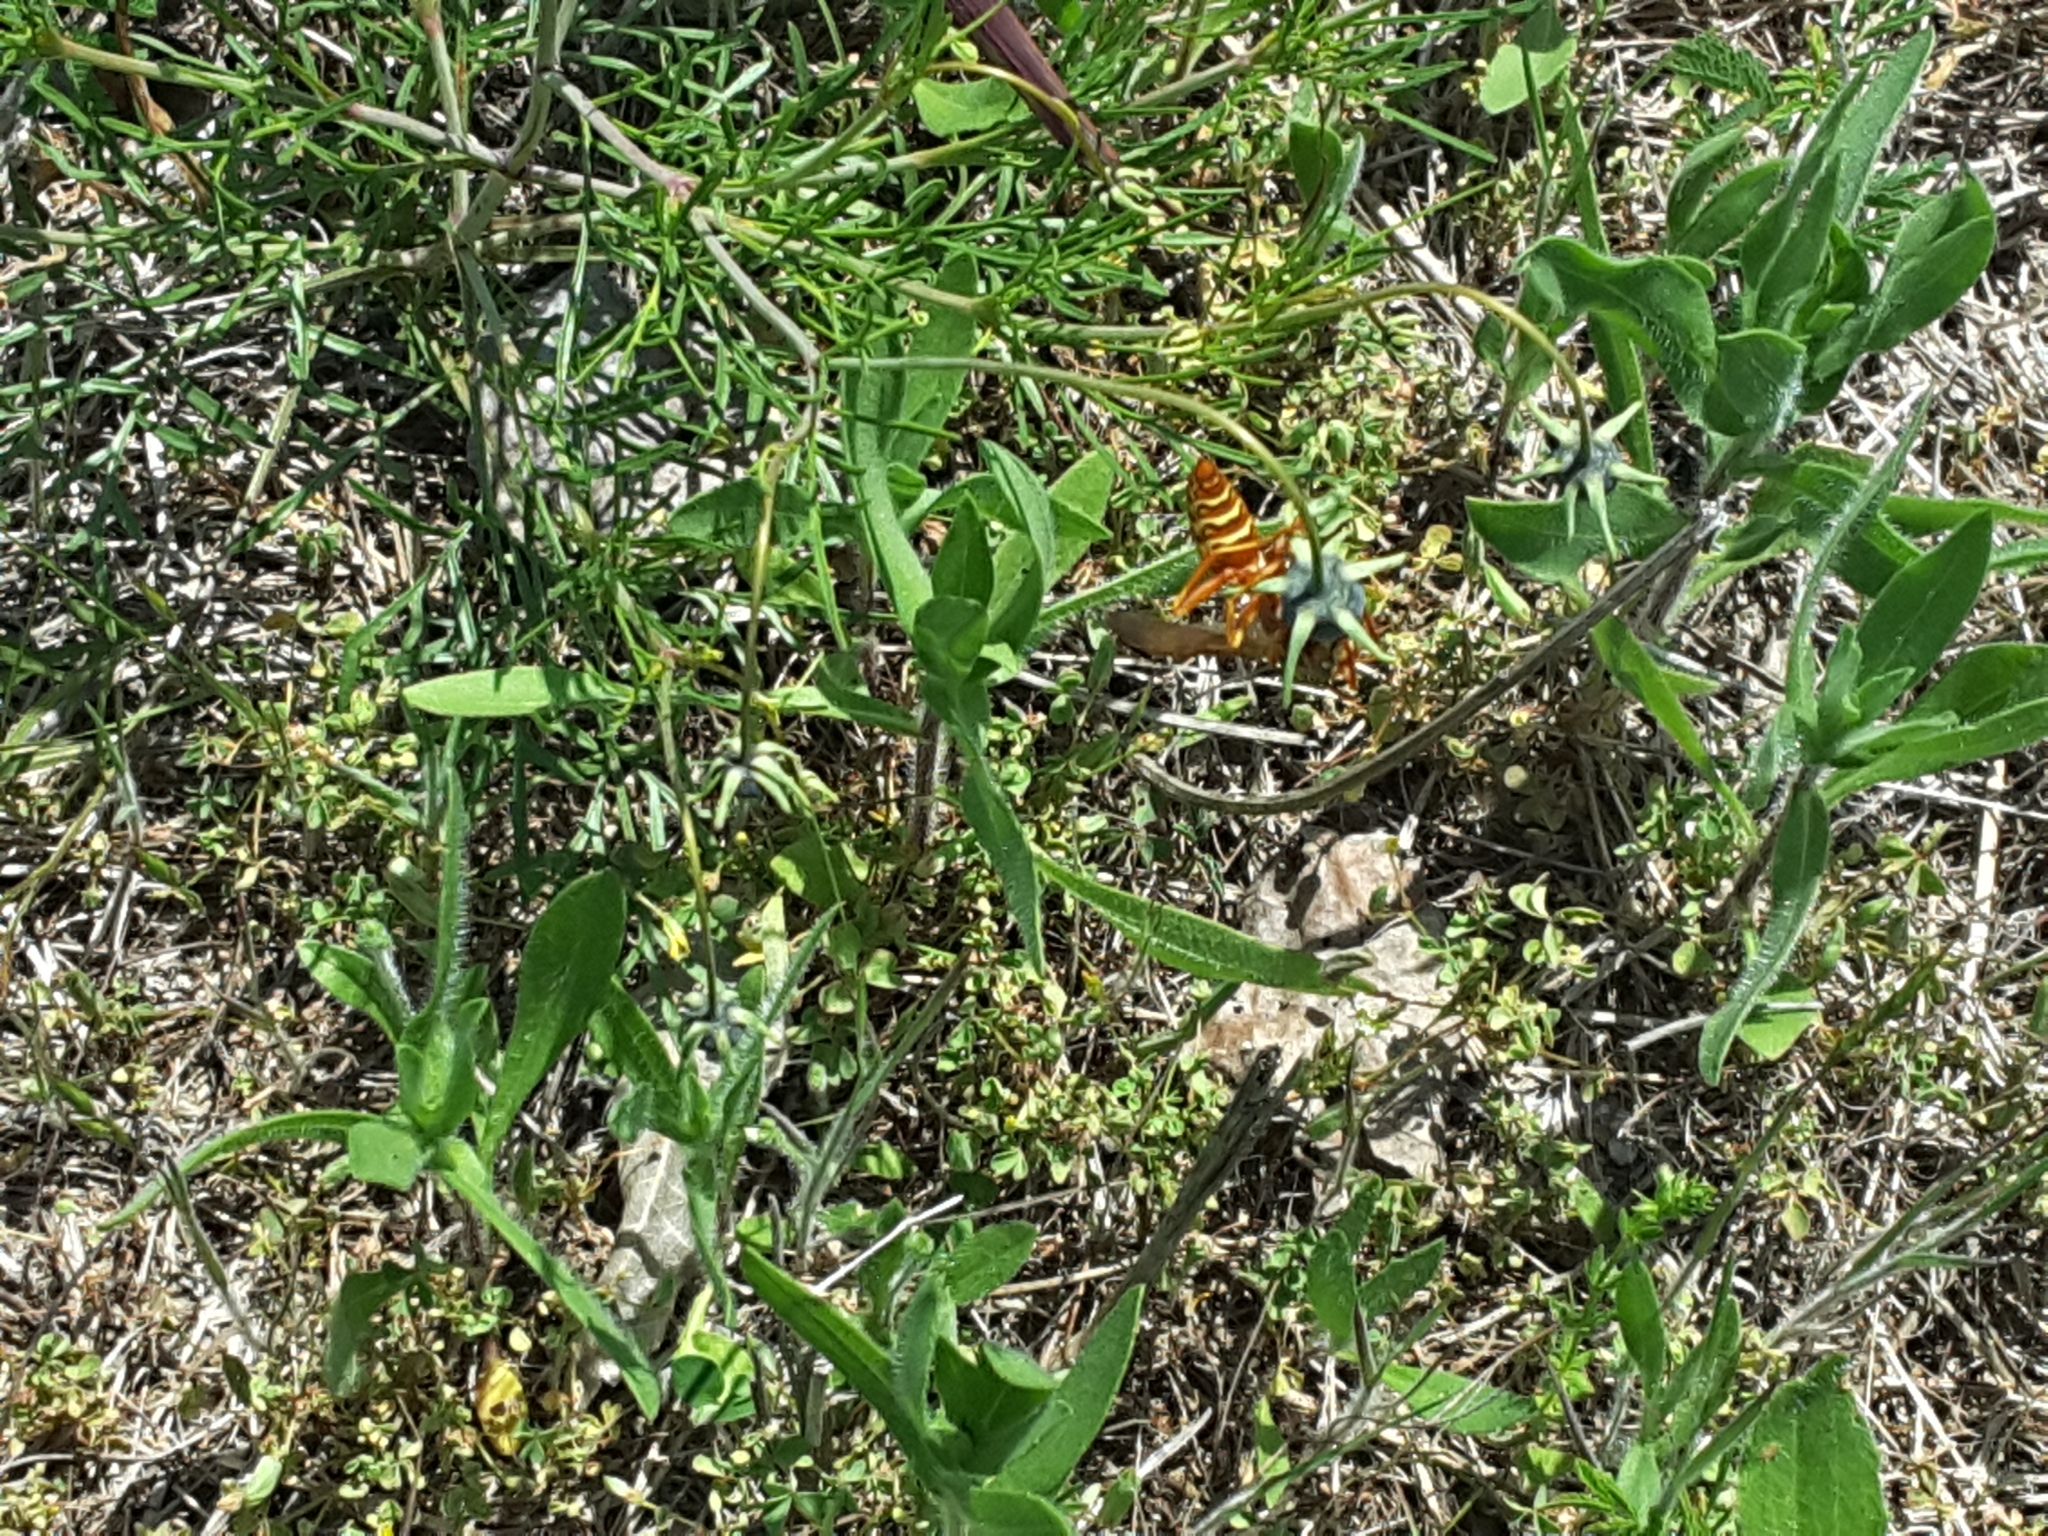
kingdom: Animalia
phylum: Arthropoda
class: Insecta
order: Hymenoptera
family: Eumenidae
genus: Polistes
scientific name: Polistes apachus
